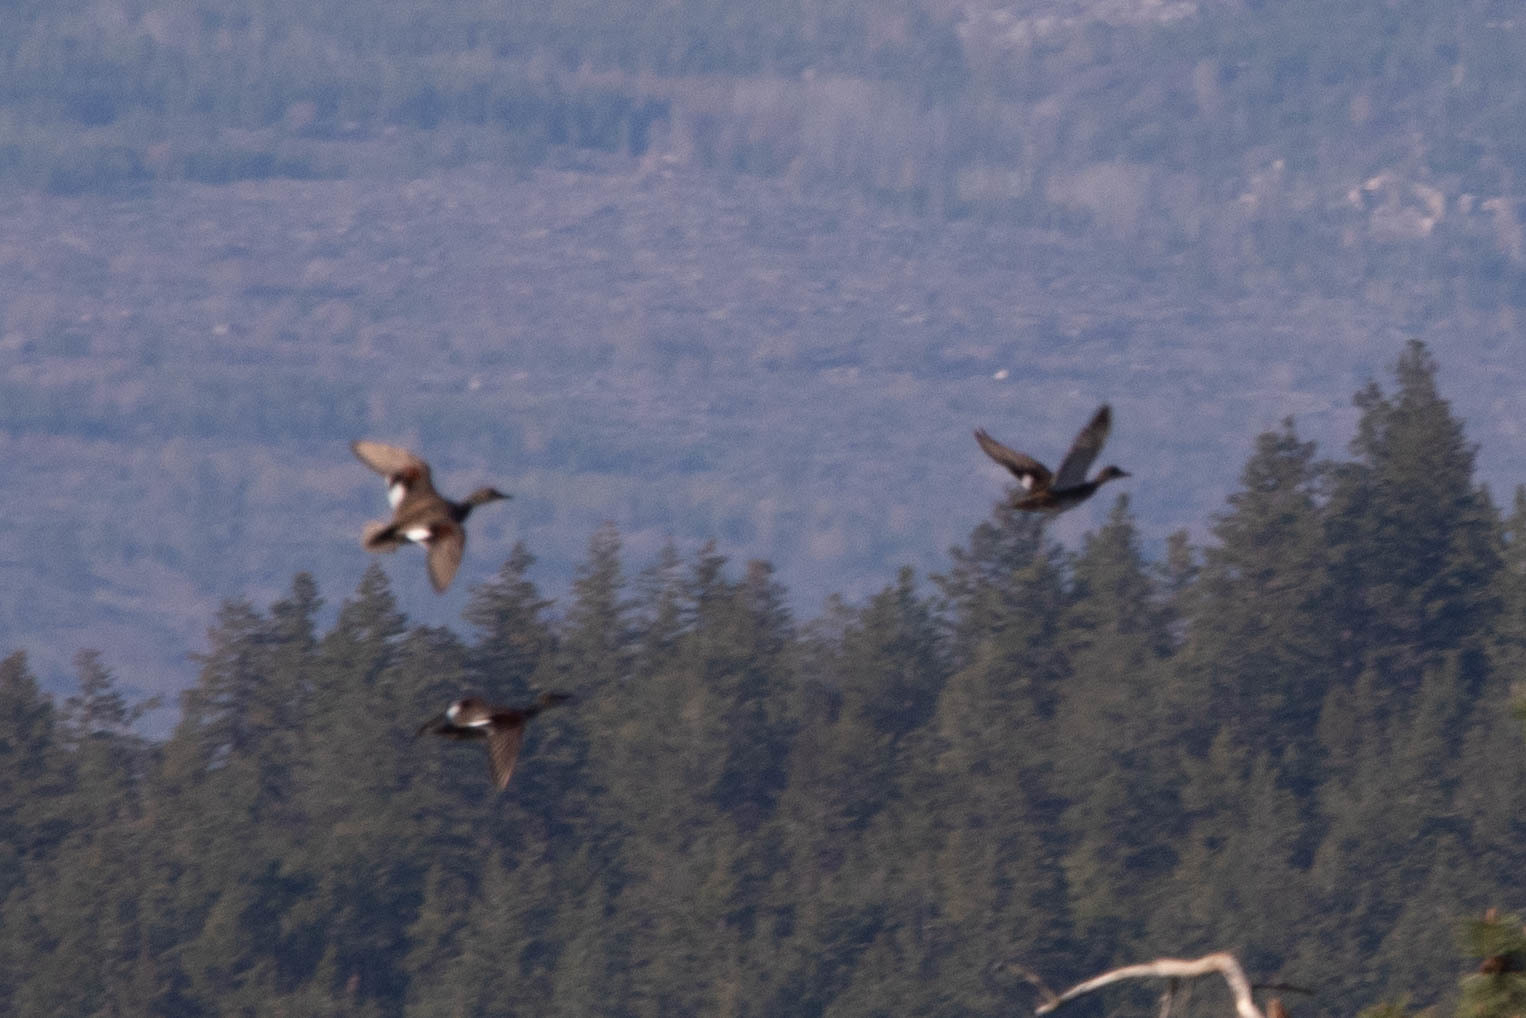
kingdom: Animalia
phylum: Chordata
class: Aves
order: Anseriformes
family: Anatidae
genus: Mareca
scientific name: Mareca strepera
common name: Gadwall
